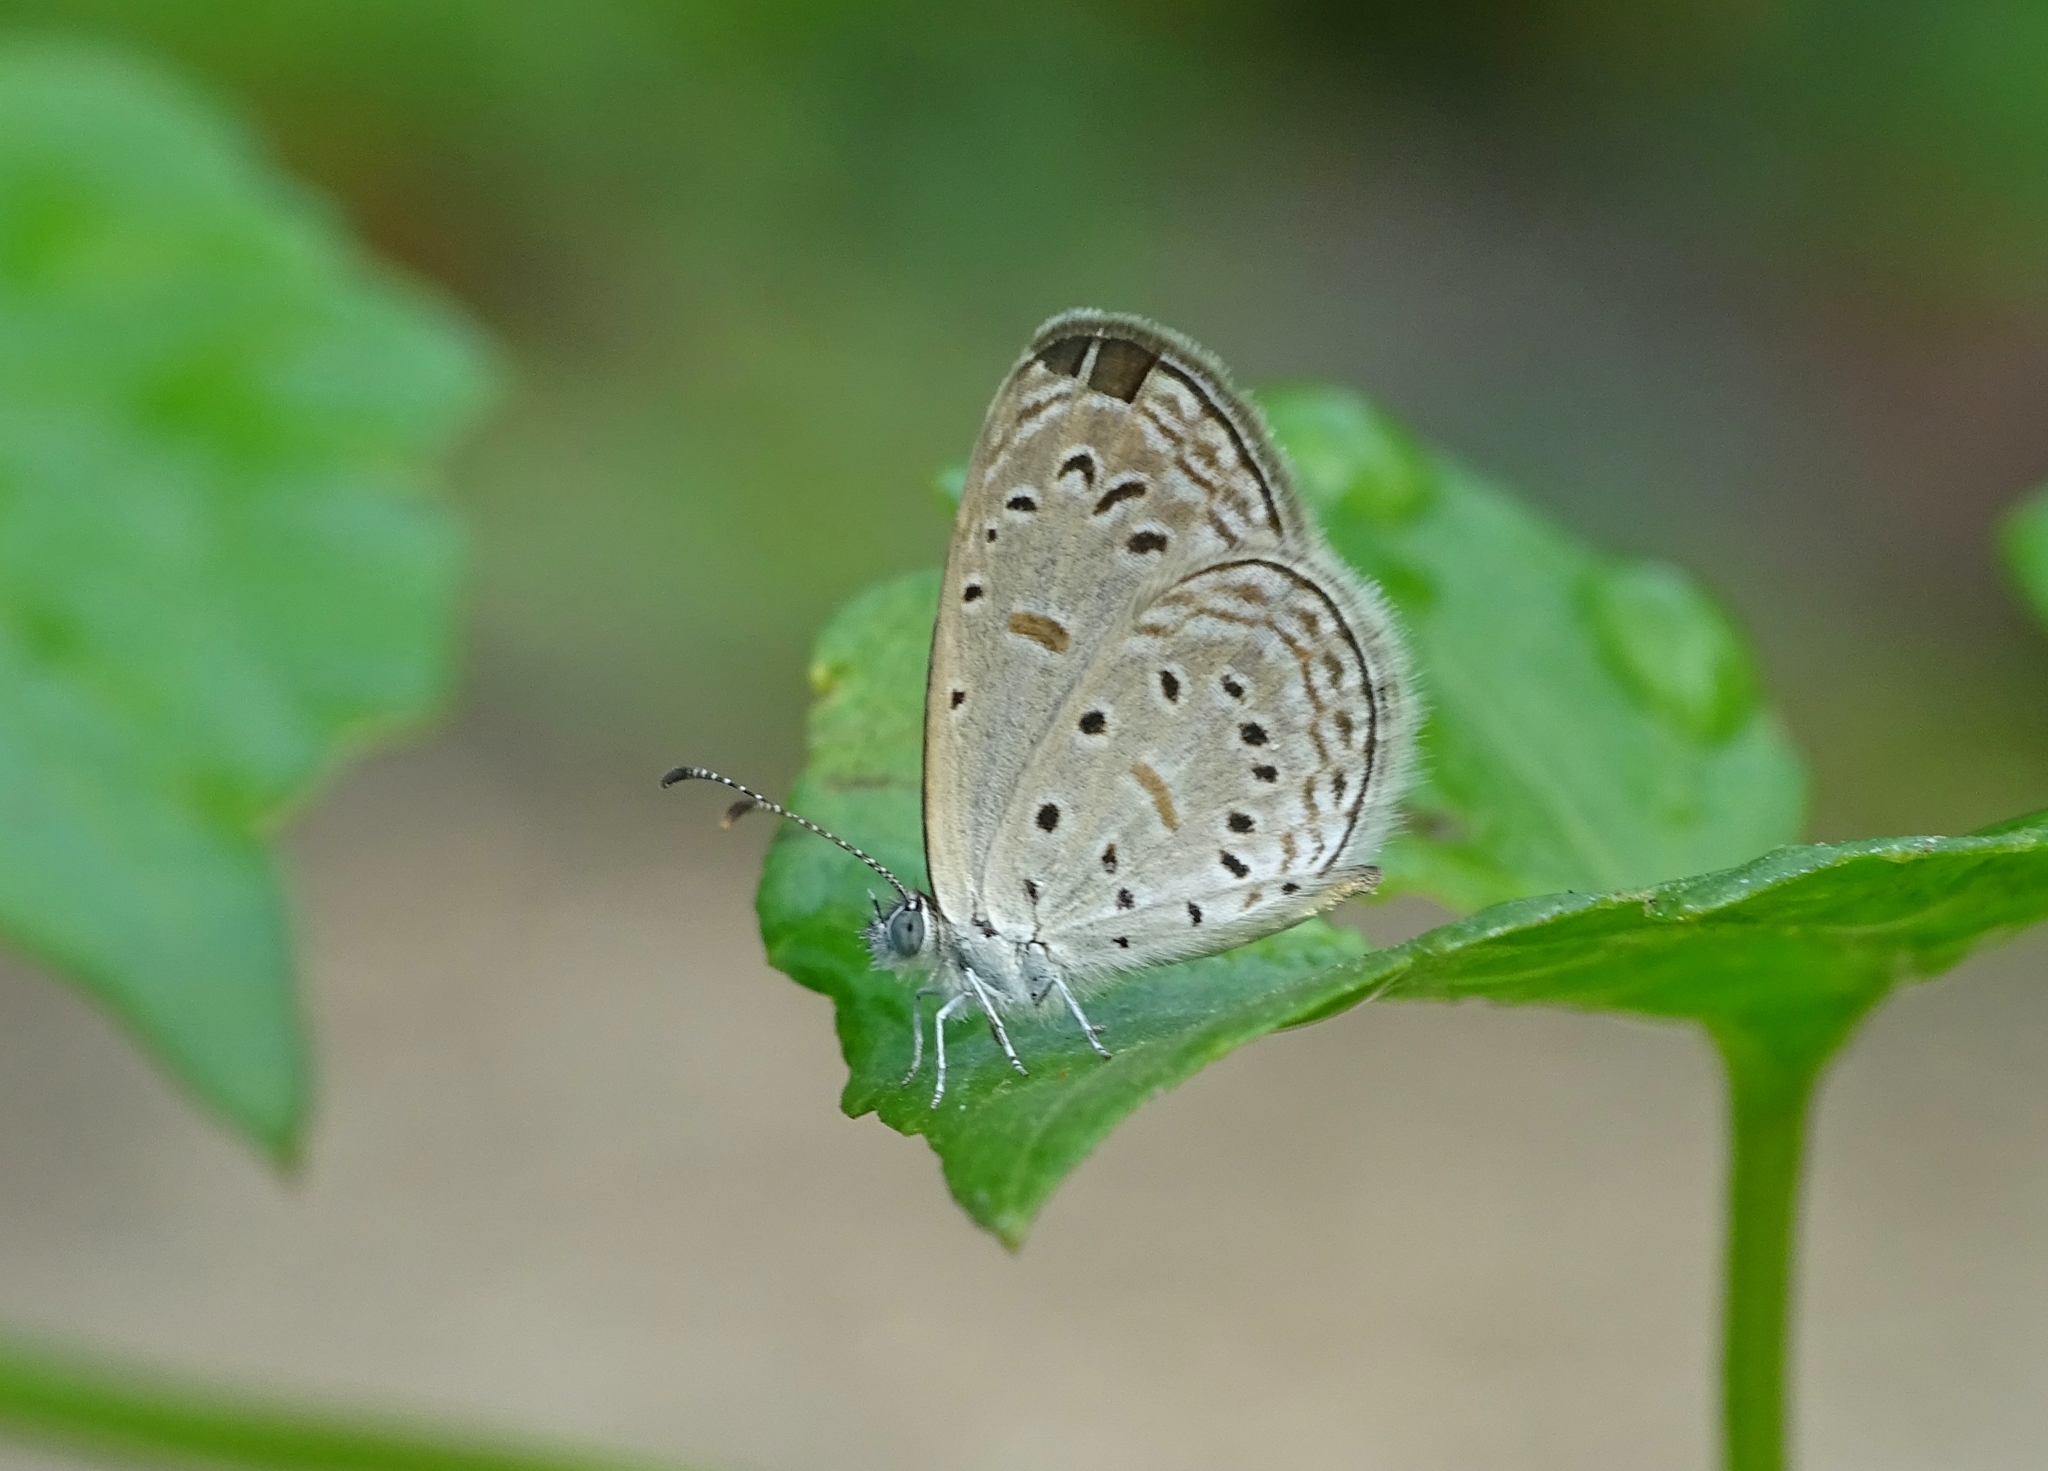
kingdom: Animalia
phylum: Arthropoda
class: Insecta
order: Lepidoptera
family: Lycaenidae
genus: Zizula
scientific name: Zizula hylax
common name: Gaika blue
